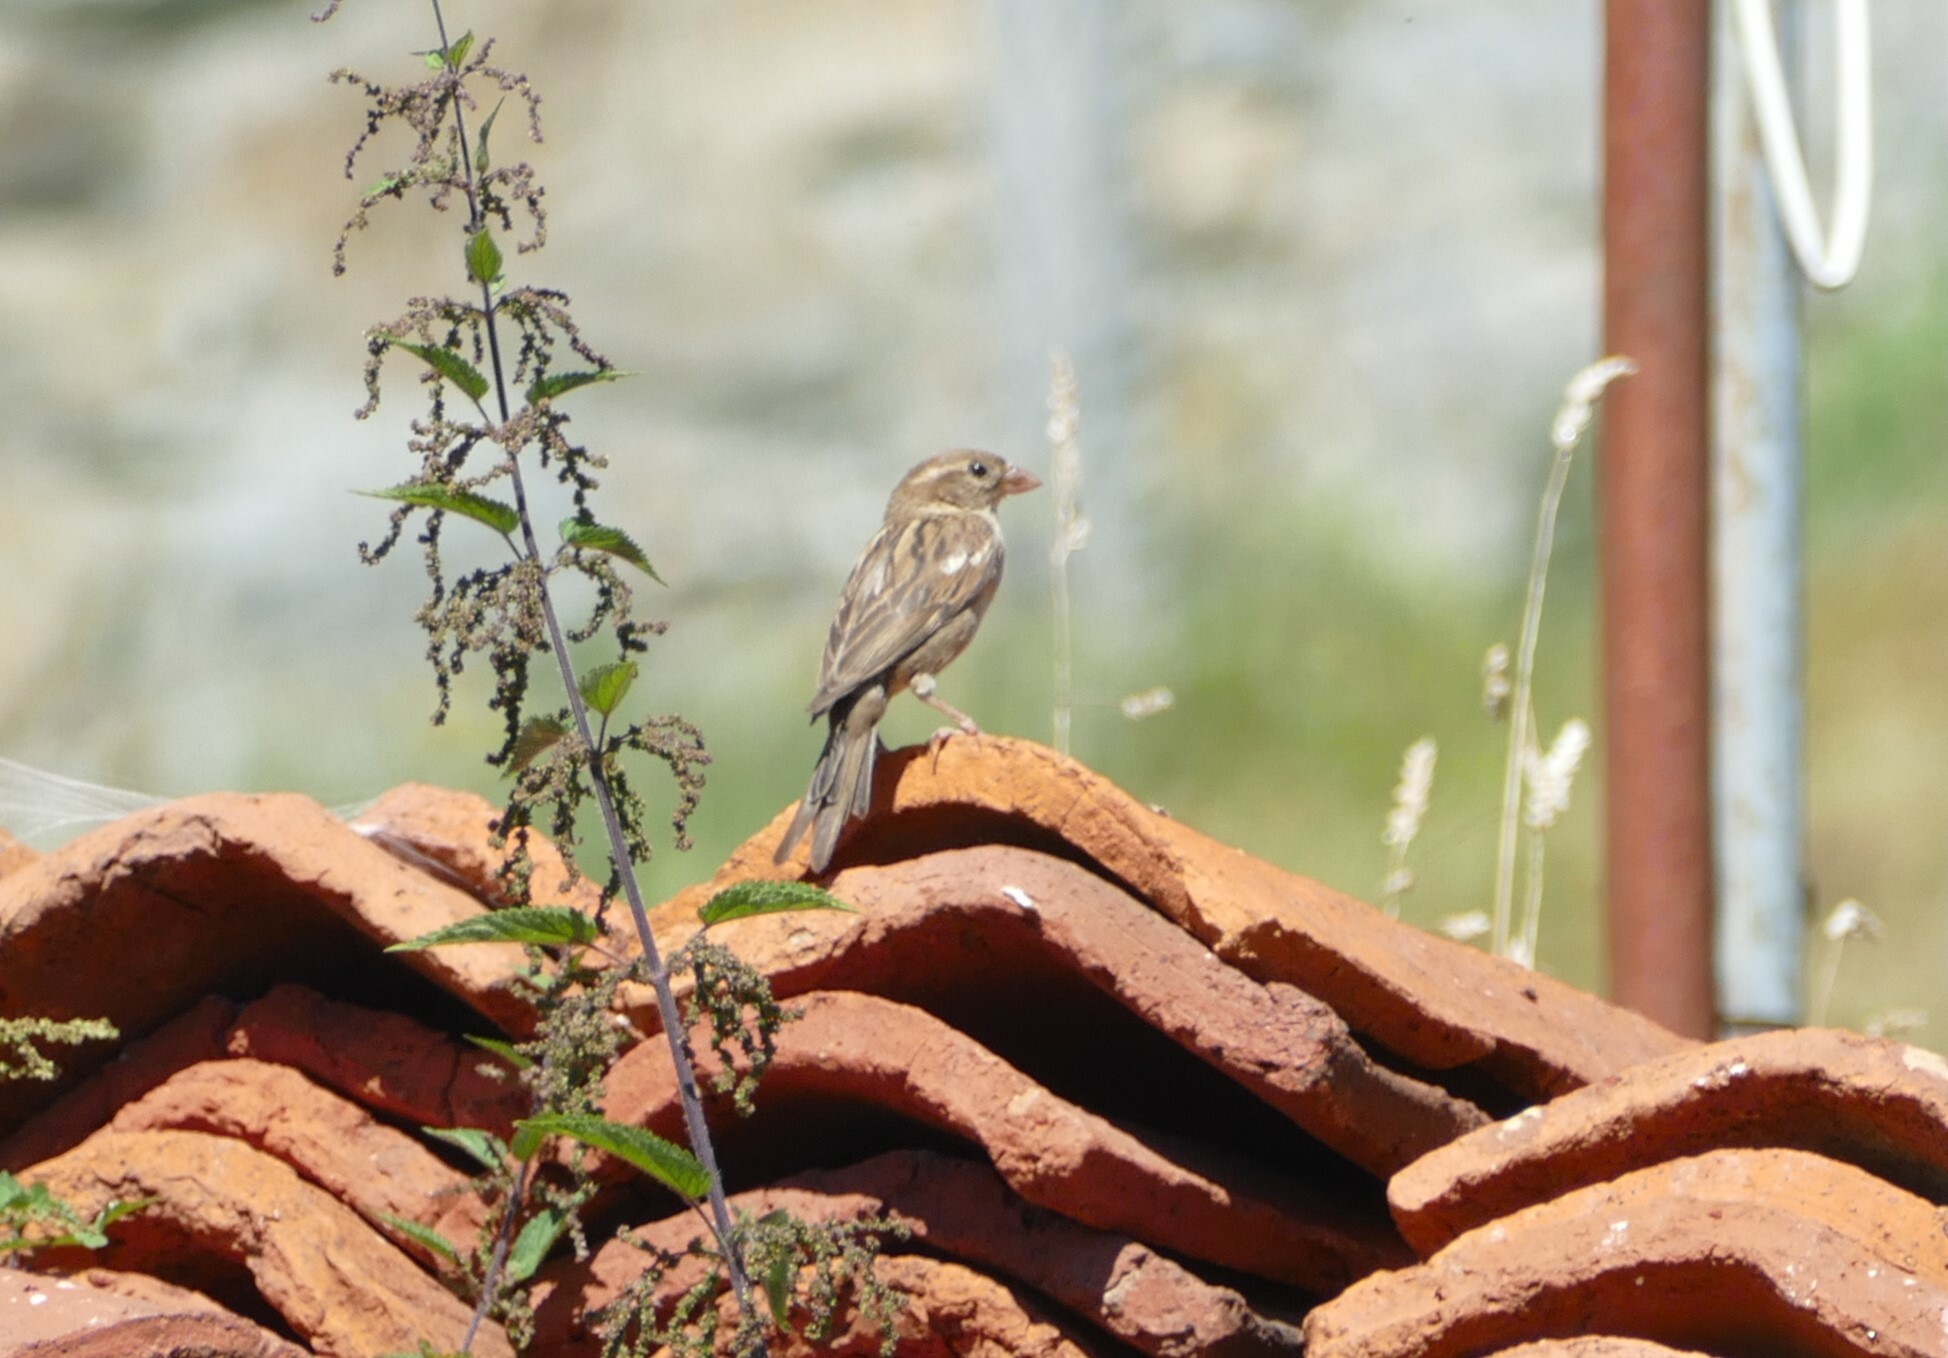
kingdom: Animalia
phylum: Chordata
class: Aves
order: Passeriformes
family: Passeridae
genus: Passer
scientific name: Passer domesticus
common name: House sparrow
